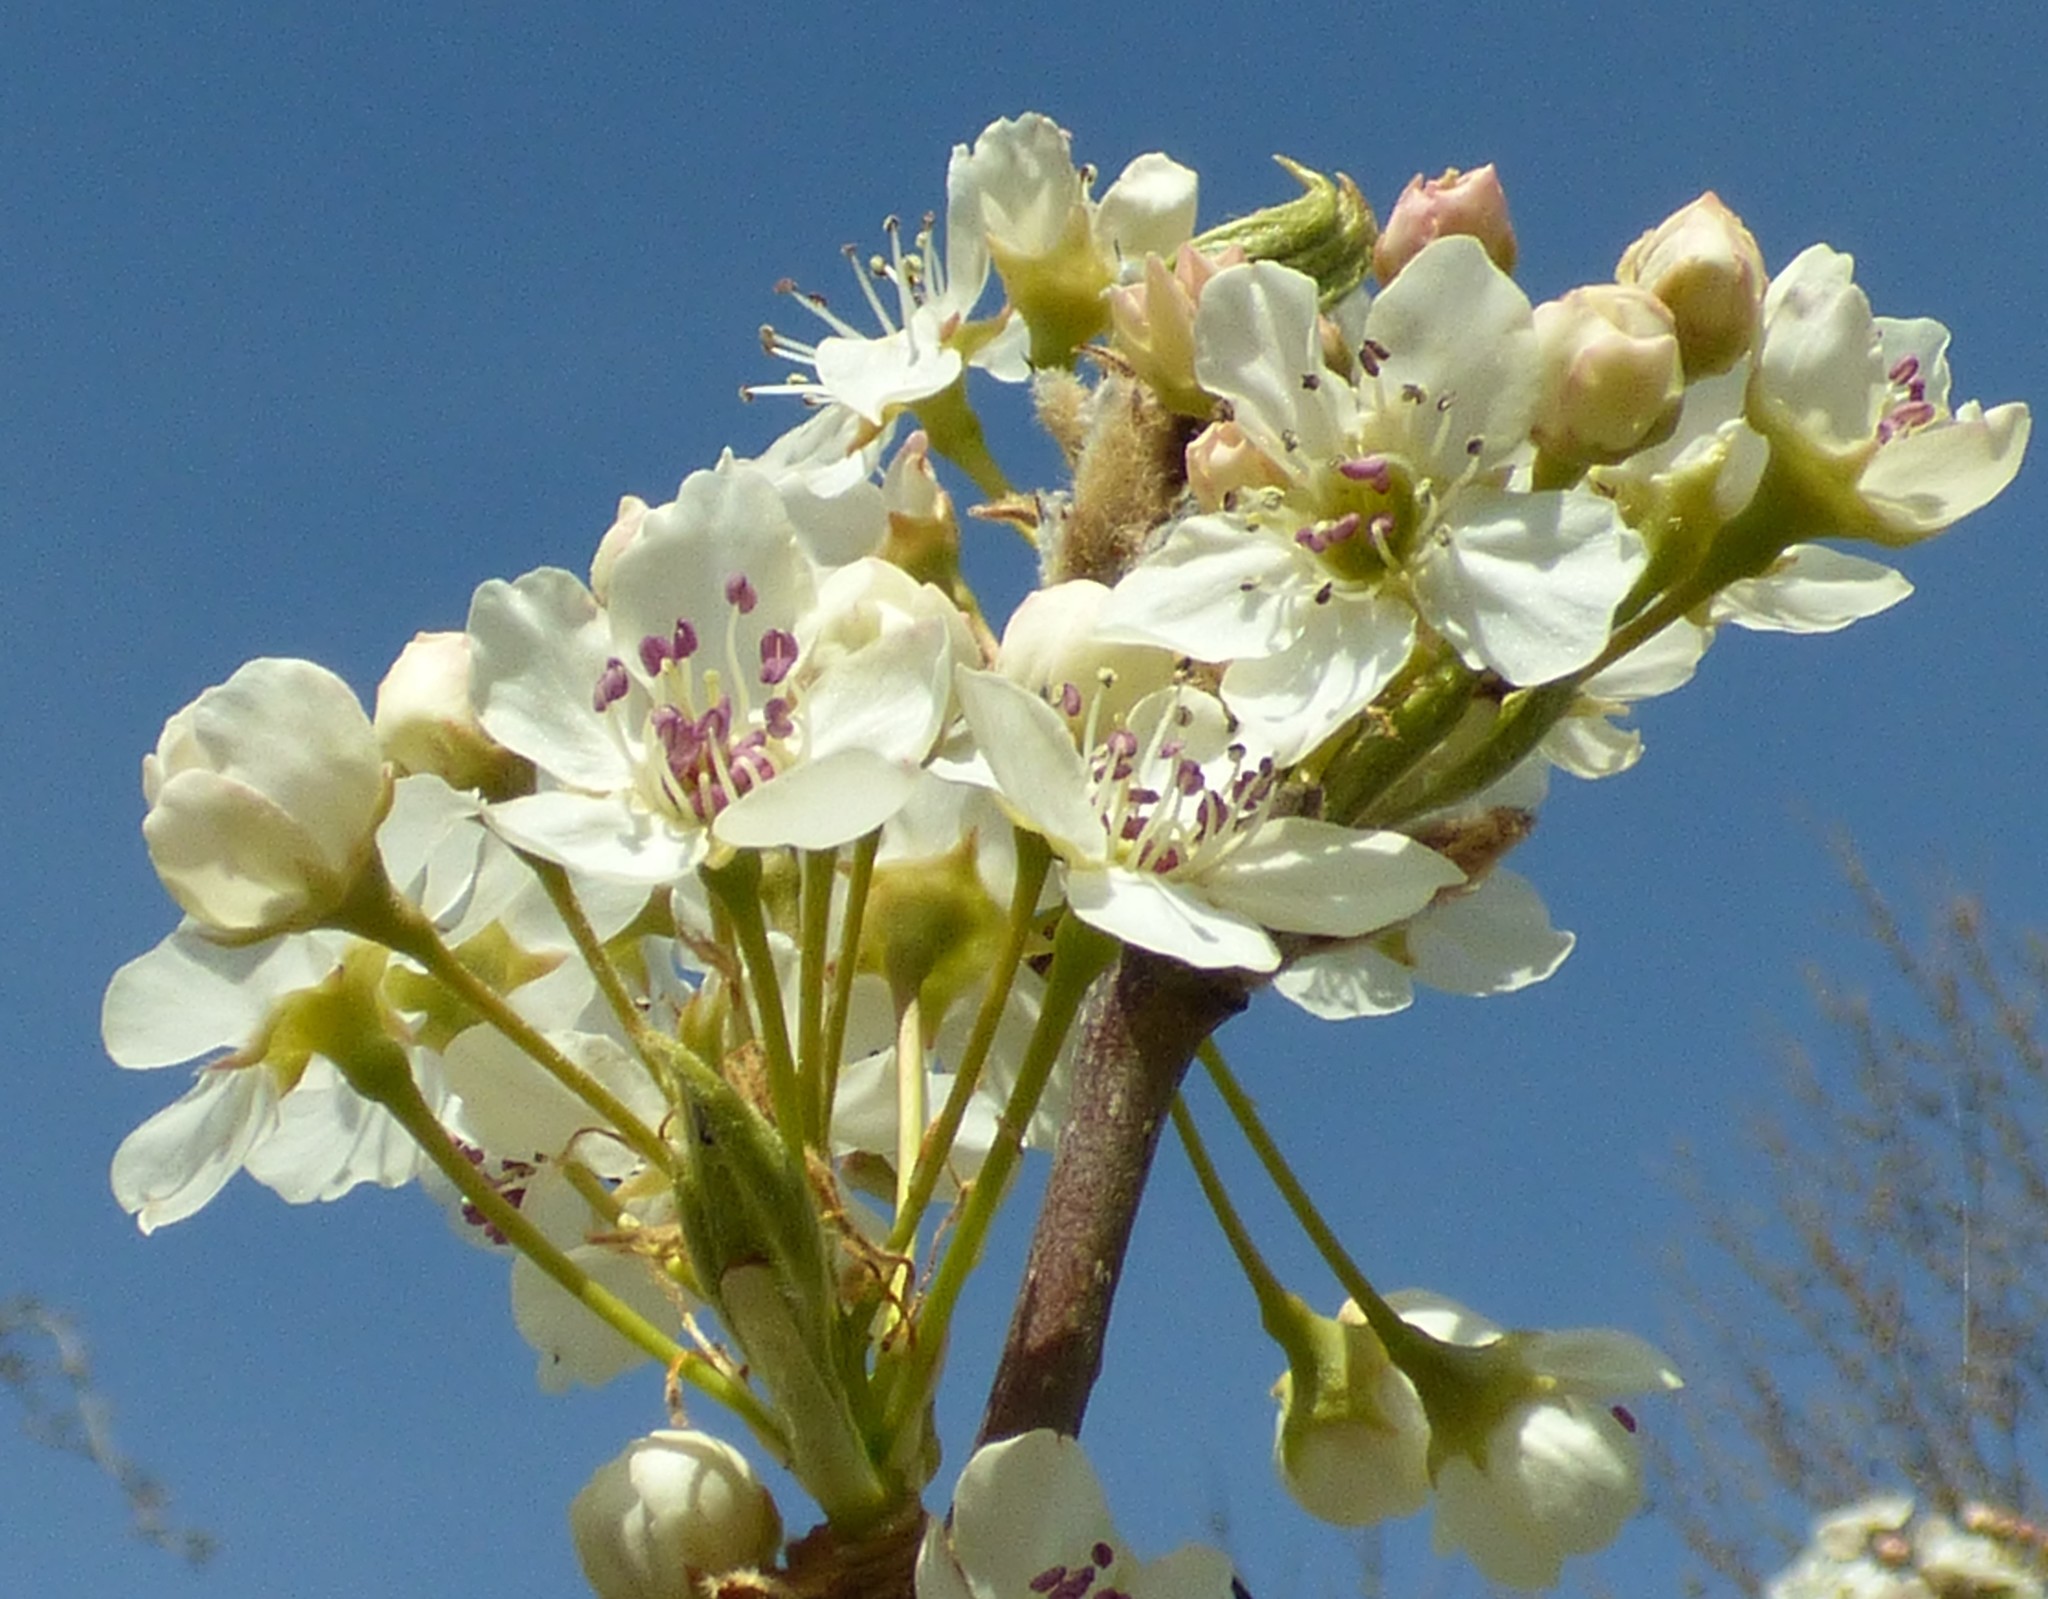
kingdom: Plantae
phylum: Tracheophyta
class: Magnoliopsida
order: Rosales
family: Rosaceae
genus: Pyrus
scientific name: Pyrus calleryana
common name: Callery pear
